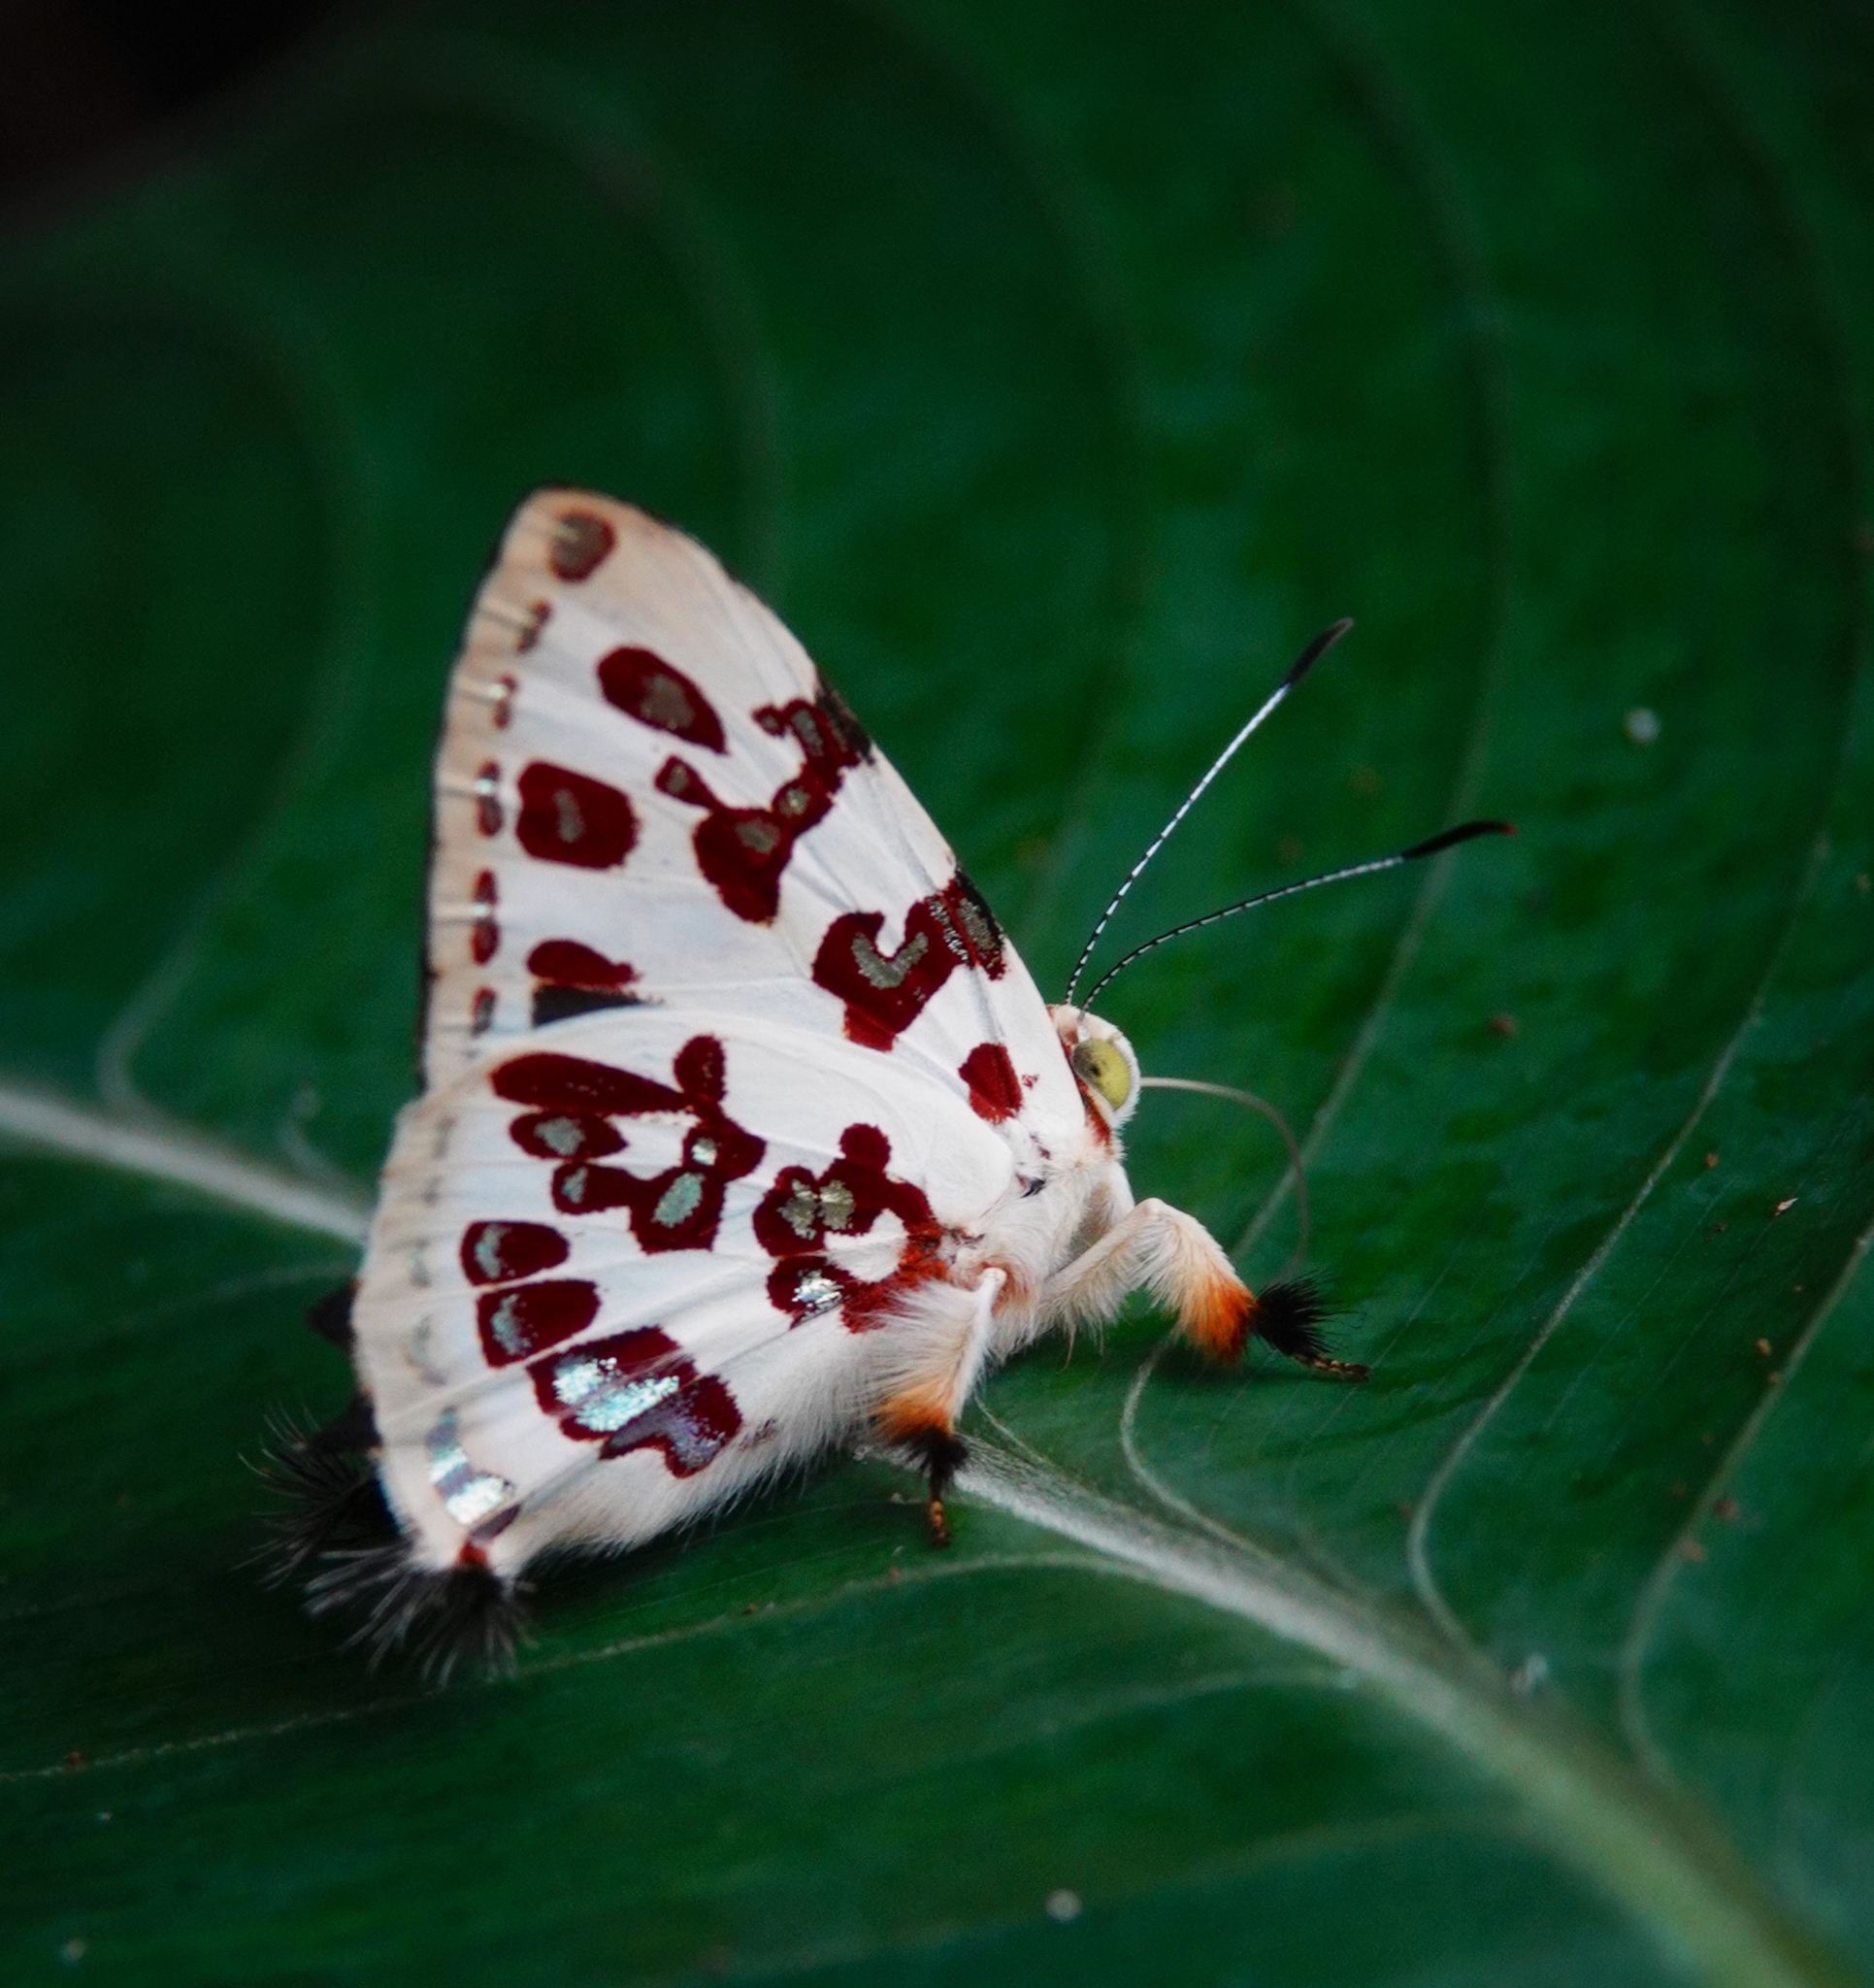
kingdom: Animalia
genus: Anteros
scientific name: Anteros acheus
